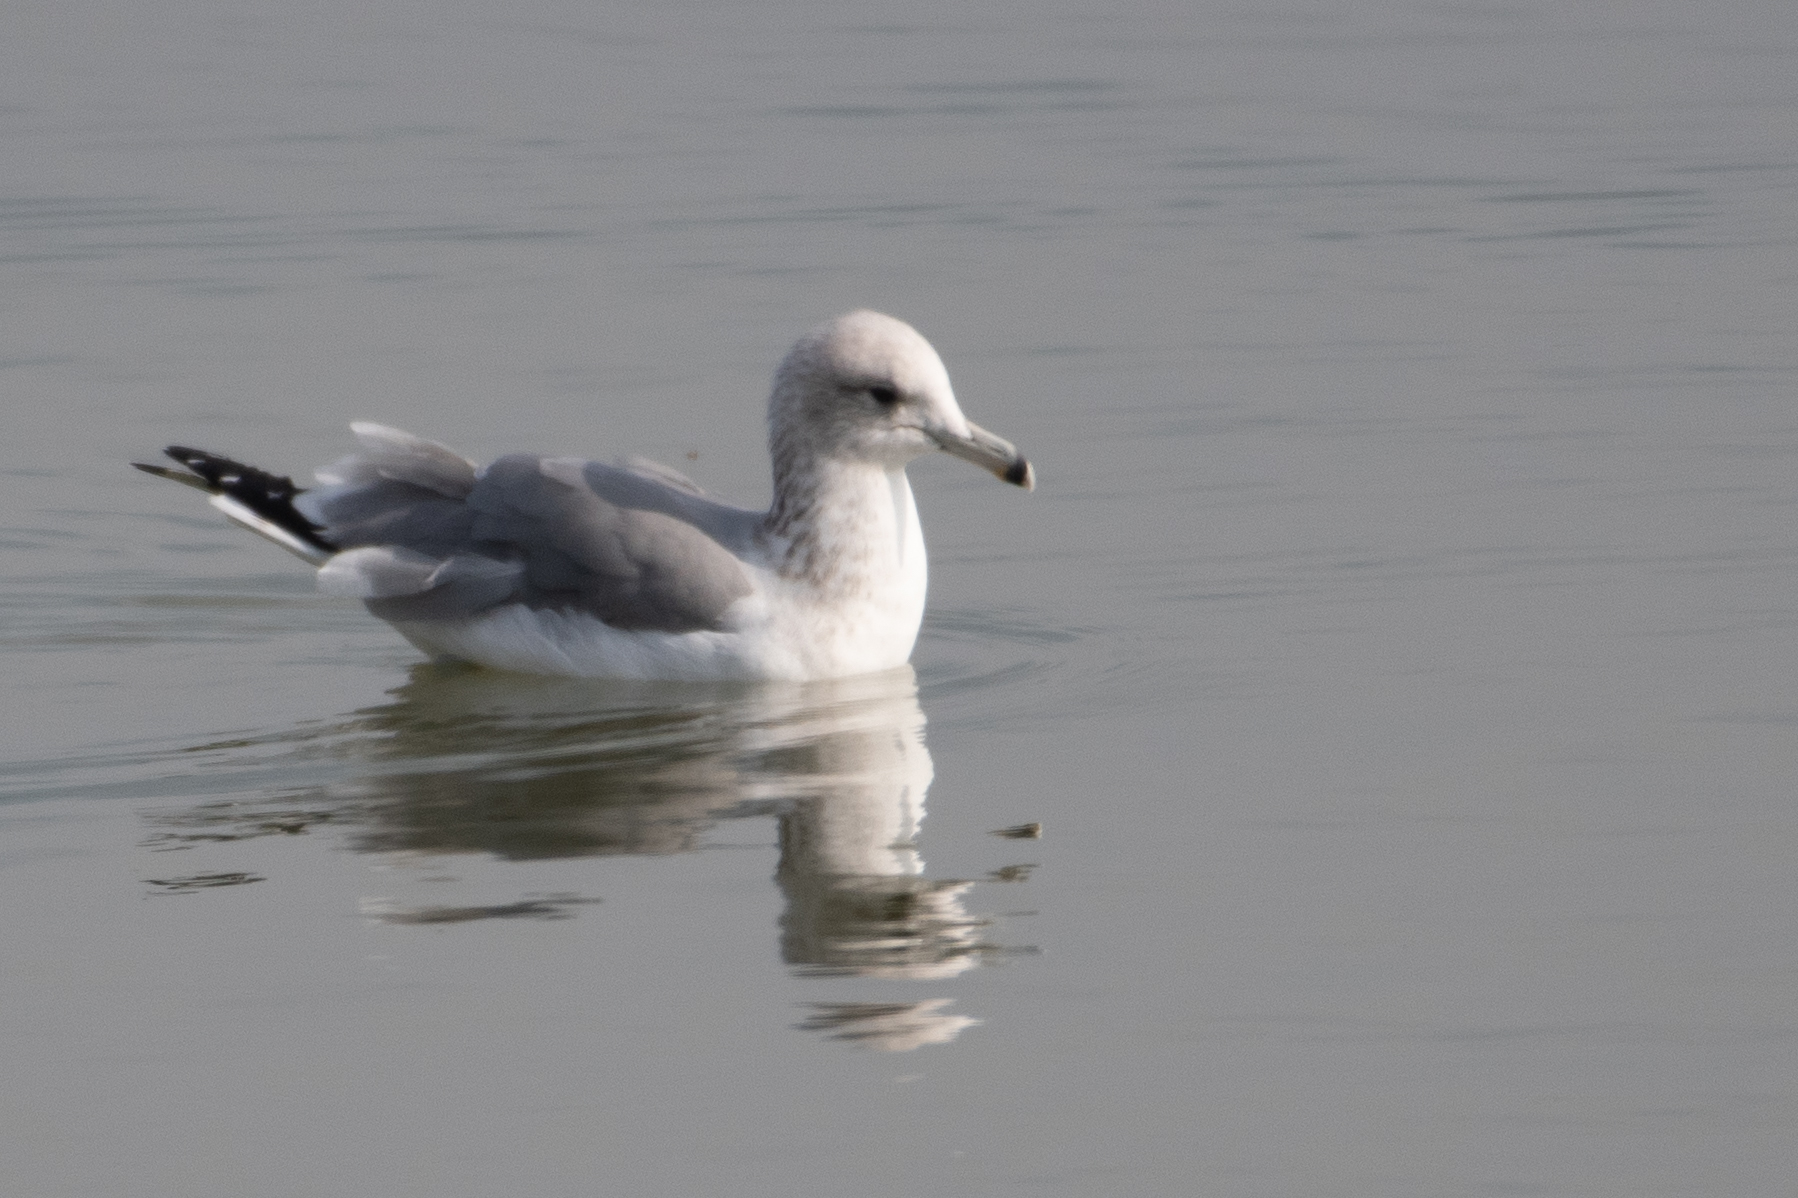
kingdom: Animalia
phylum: Chordata
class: Aves
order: Charadriiformes
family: Laridae
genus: Larus
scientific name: Larus californicus
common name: California gull
